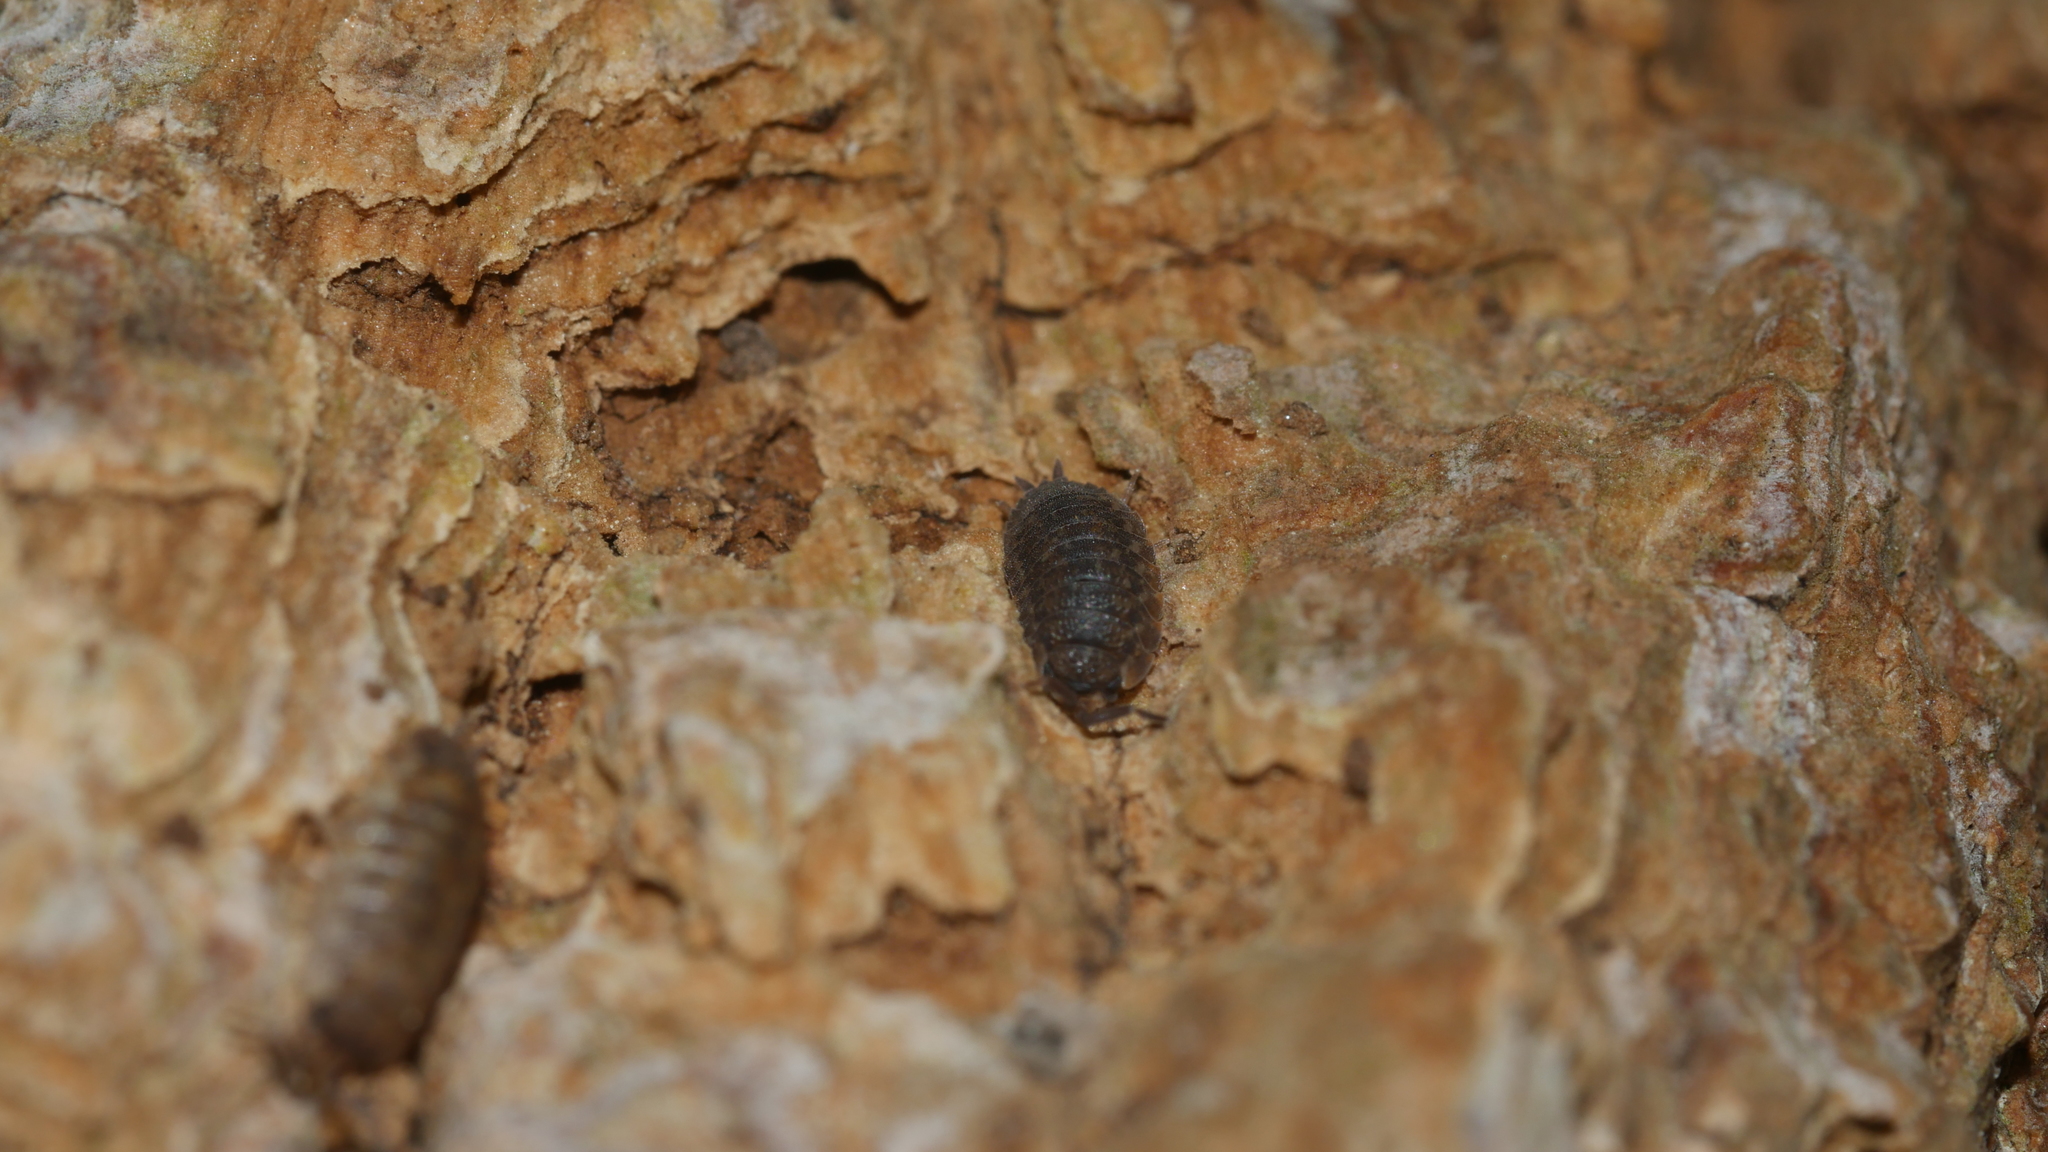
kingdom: Animalia
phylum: Arthropoda
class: Malacostraca
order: Isopoda
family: Porcellionidae
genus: Porcellio
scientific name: Porcellio scaber
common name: Common rough woodlouse
